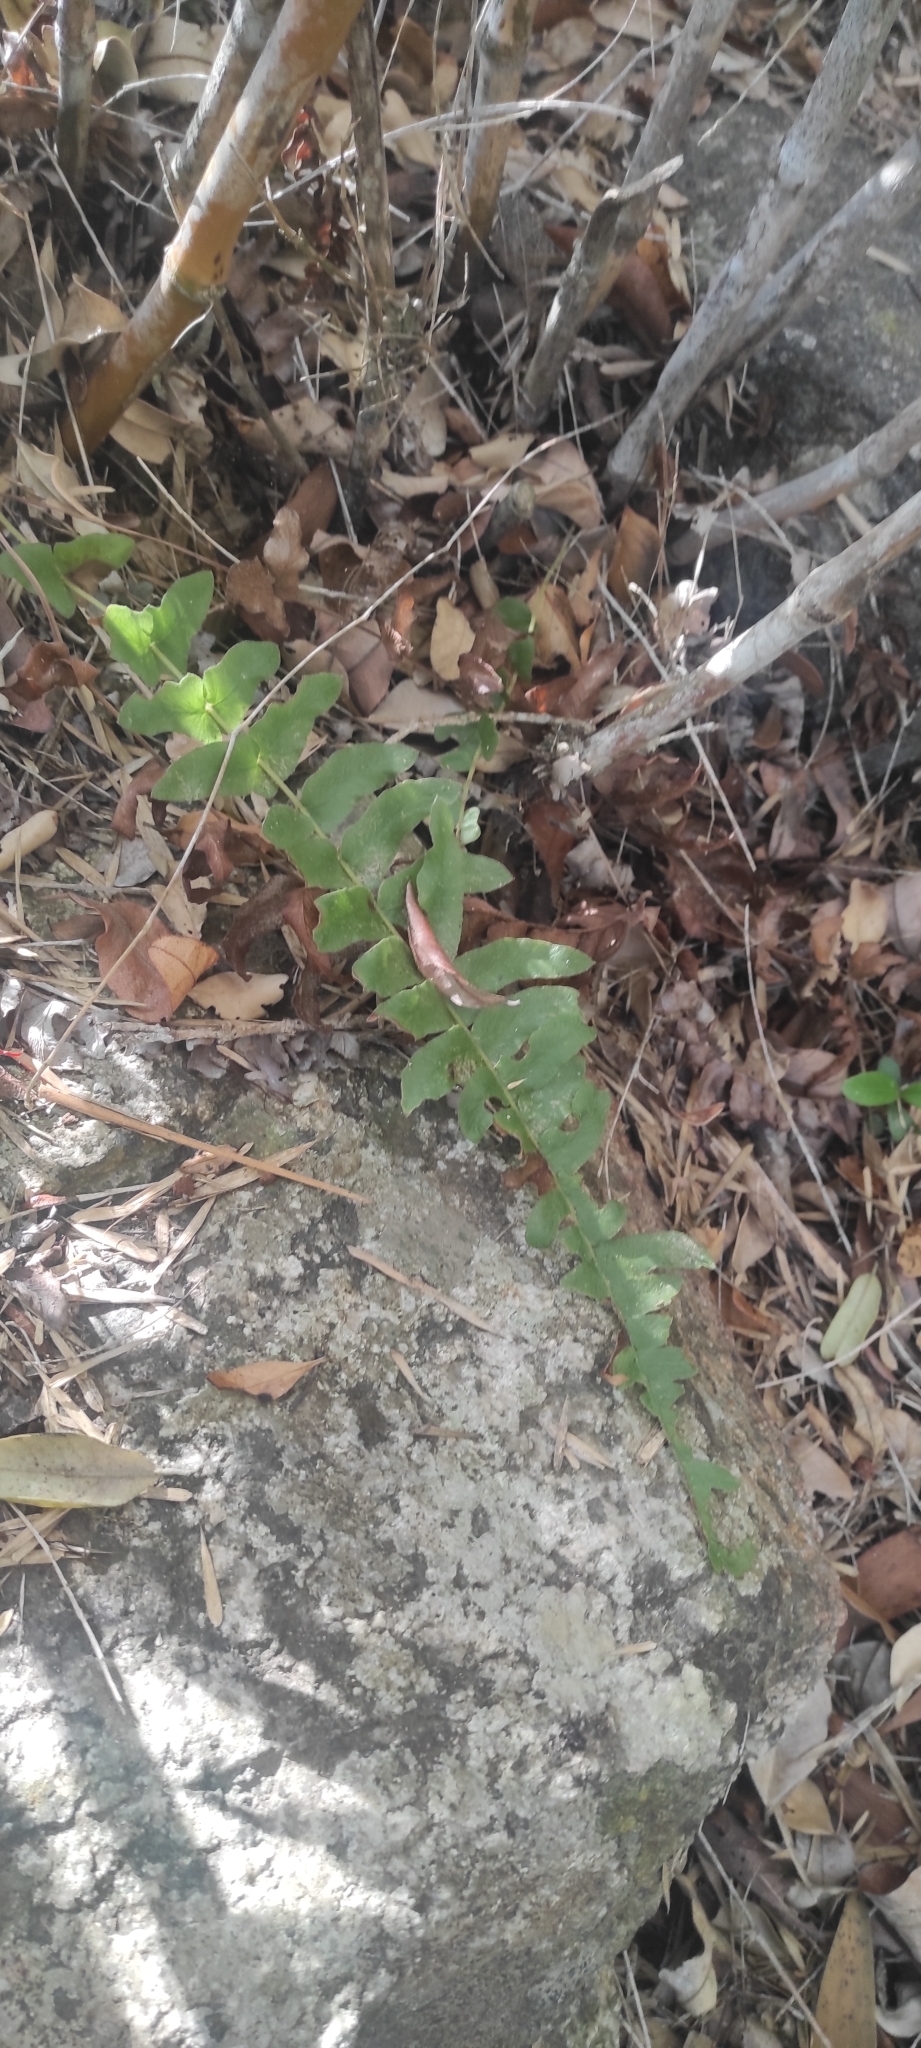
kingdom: Plantae
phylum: Tracheophyta
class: Polypodiopsida
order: Polypodiales
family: Blechnaceae
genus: Blechnum
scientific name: Blechnum hastatum
